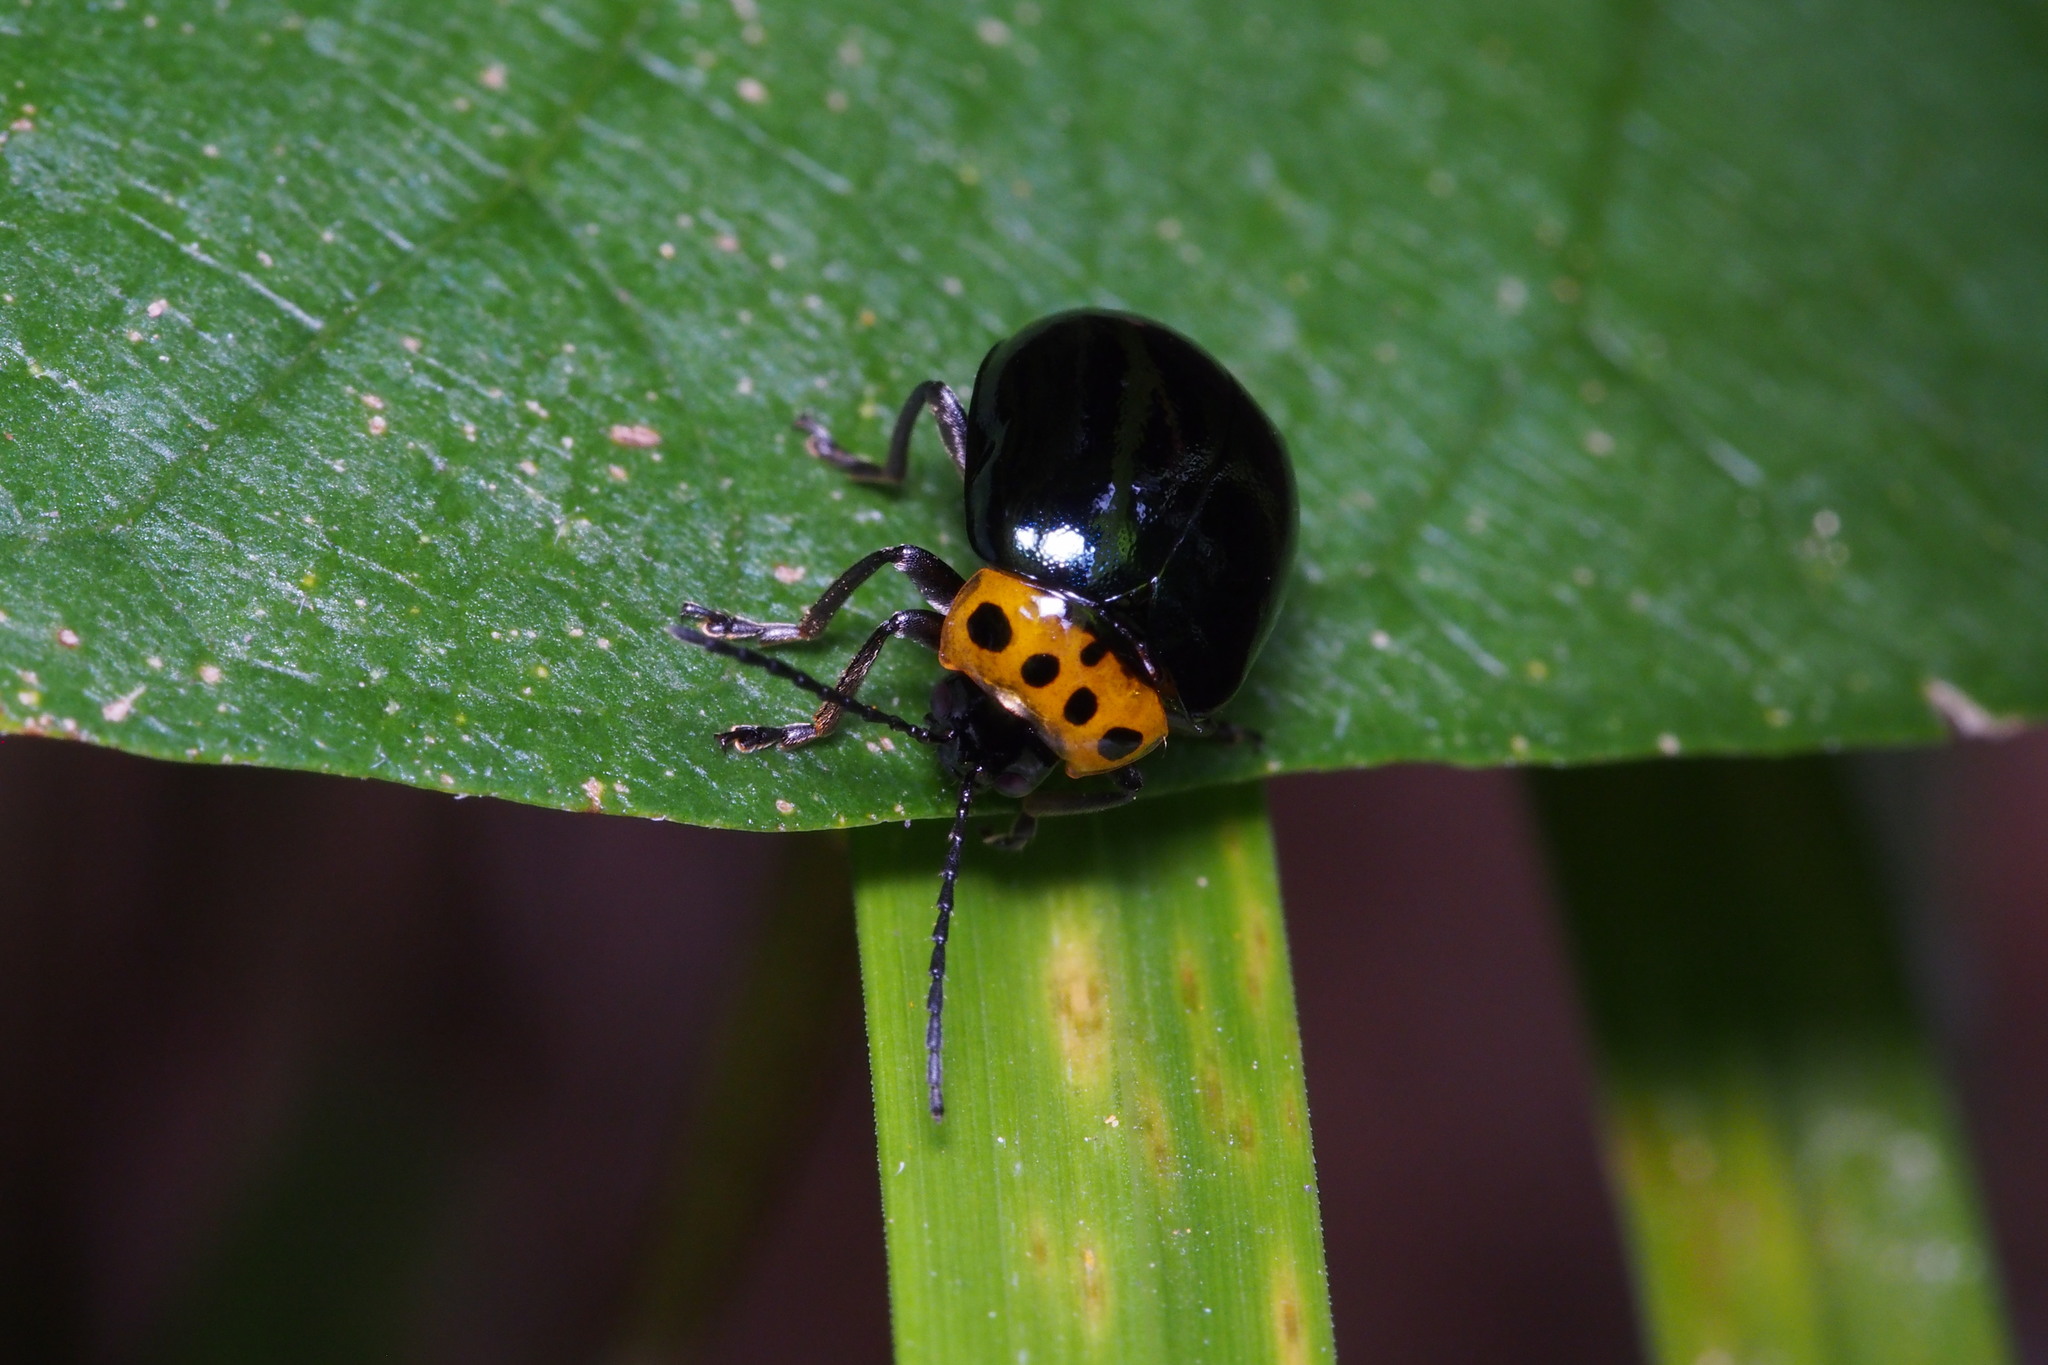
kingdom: Animalia
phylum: Arthropoda
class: Insecta
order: Coleoptera
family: Chrysomelidae
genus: Morphosphaera
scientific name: Morphosphaera japonica
